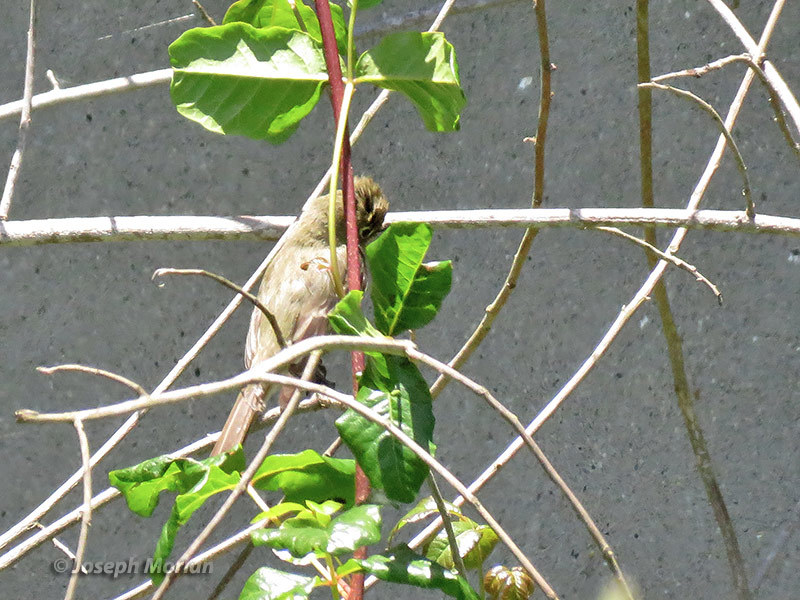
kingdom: Animalia
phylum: Chordata
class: Aves
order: Passeriformes
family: Tyrannidae
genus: Empidonax
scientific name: Empidonax difficilis
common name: Pacific-slope flycatcher
